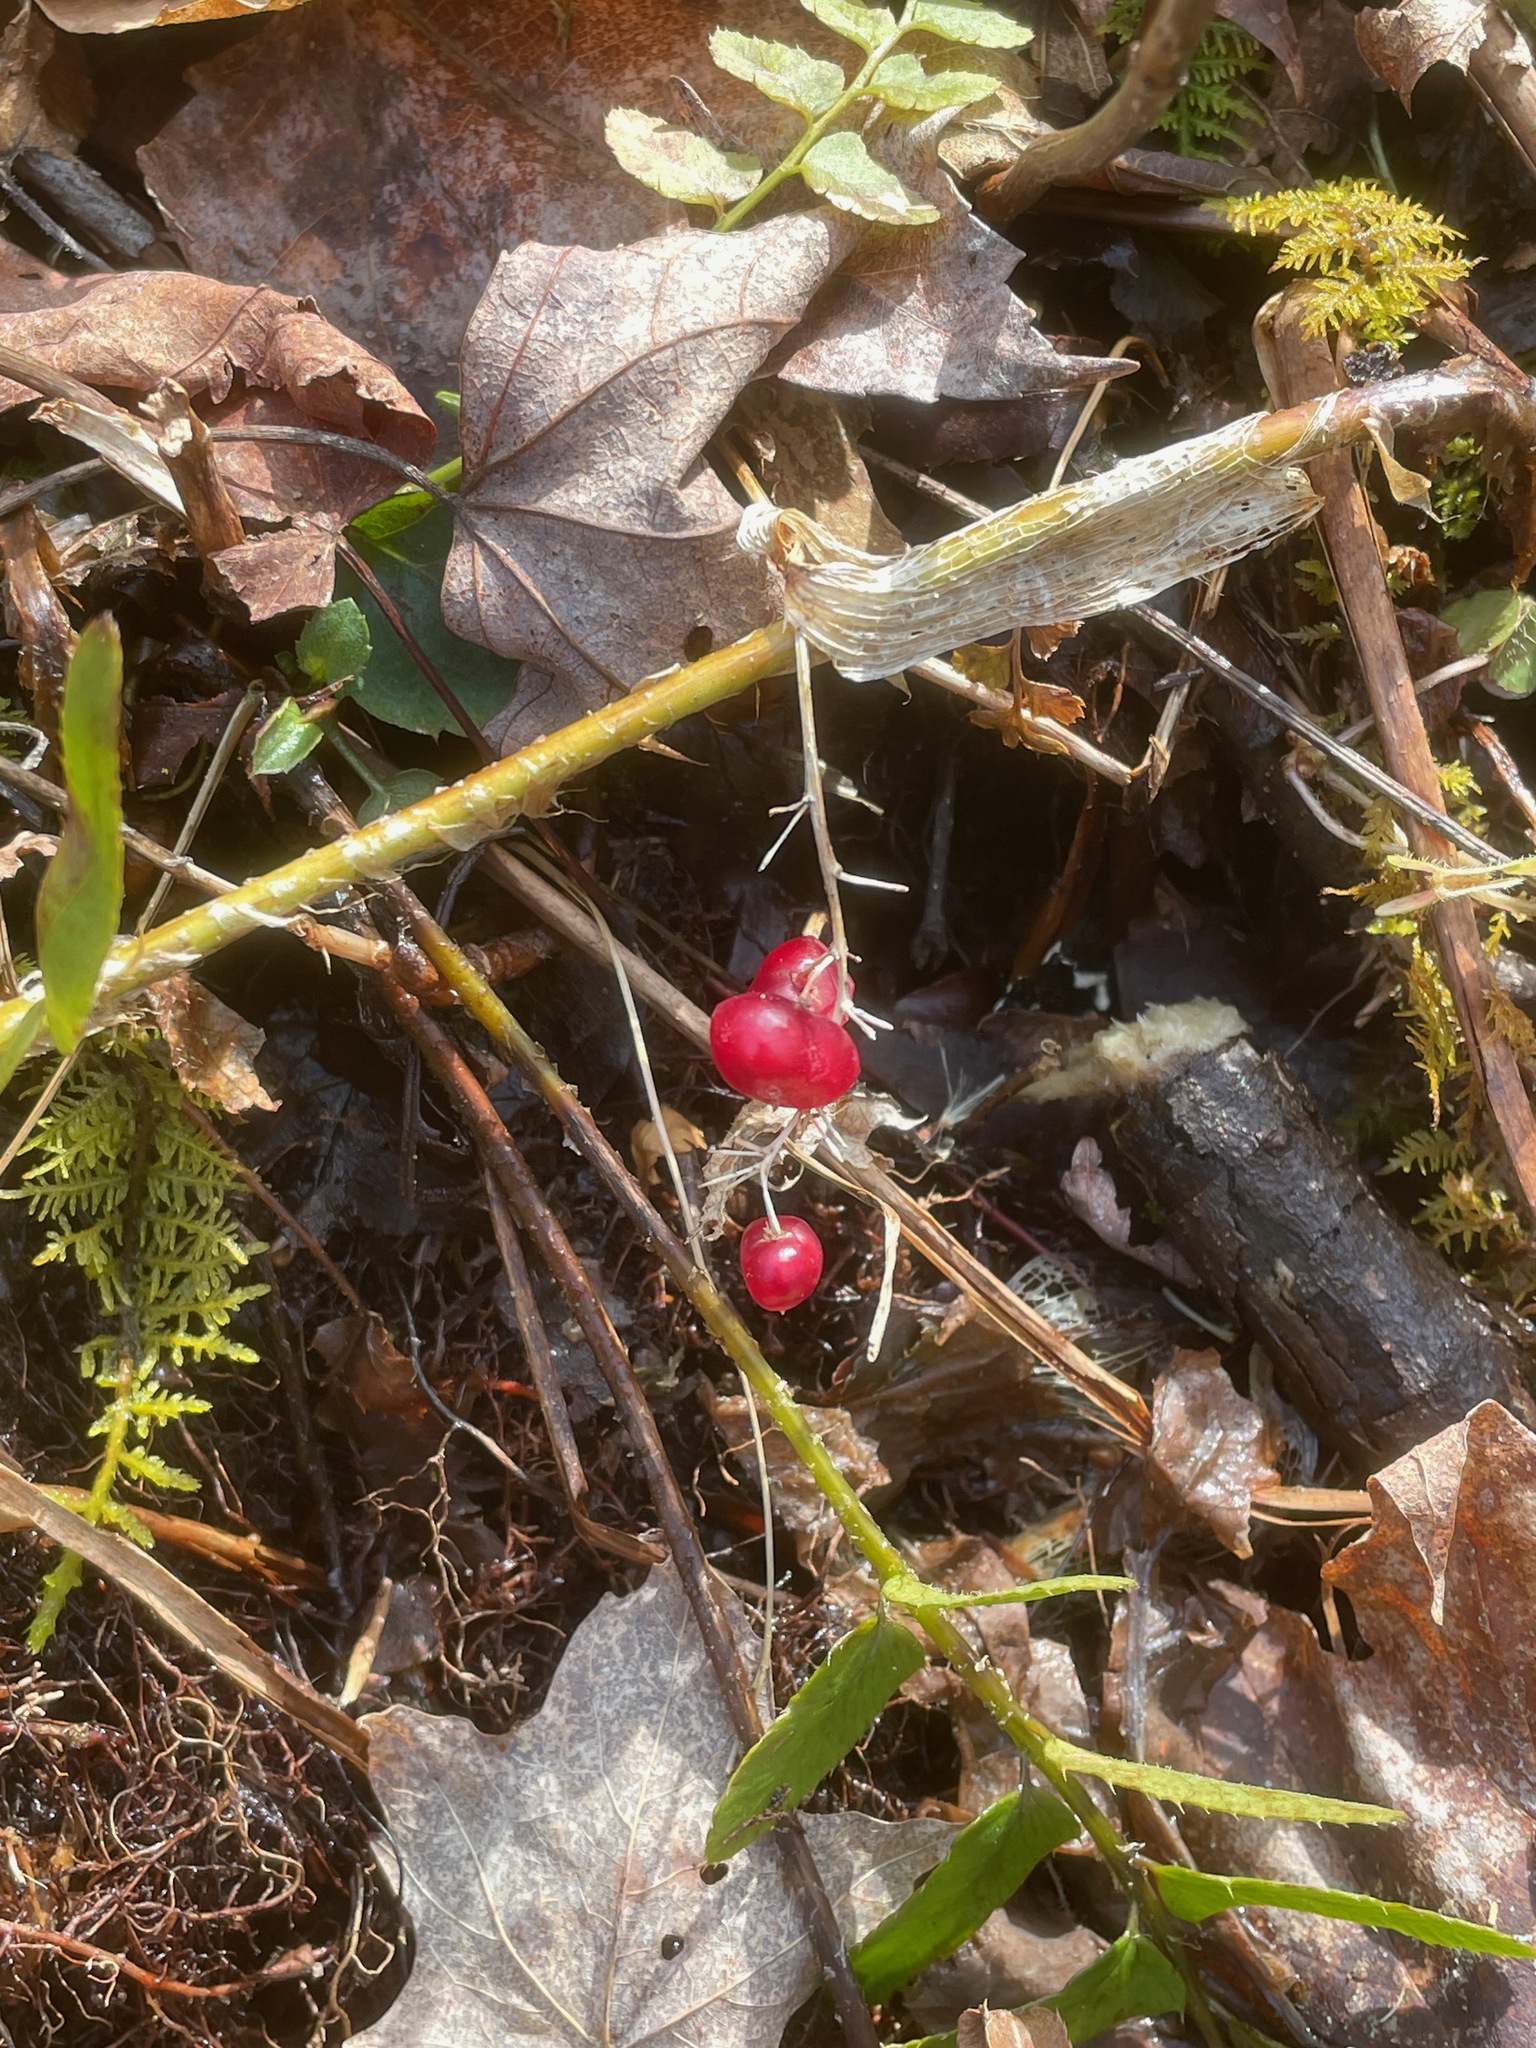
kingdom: Plantae
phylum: Tracheophyta
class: Liliopsida
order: Asparagales
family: Asparagaceae
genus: Maianthemum
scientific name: Maianthemum canadense
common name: False lily-of-the-valley
